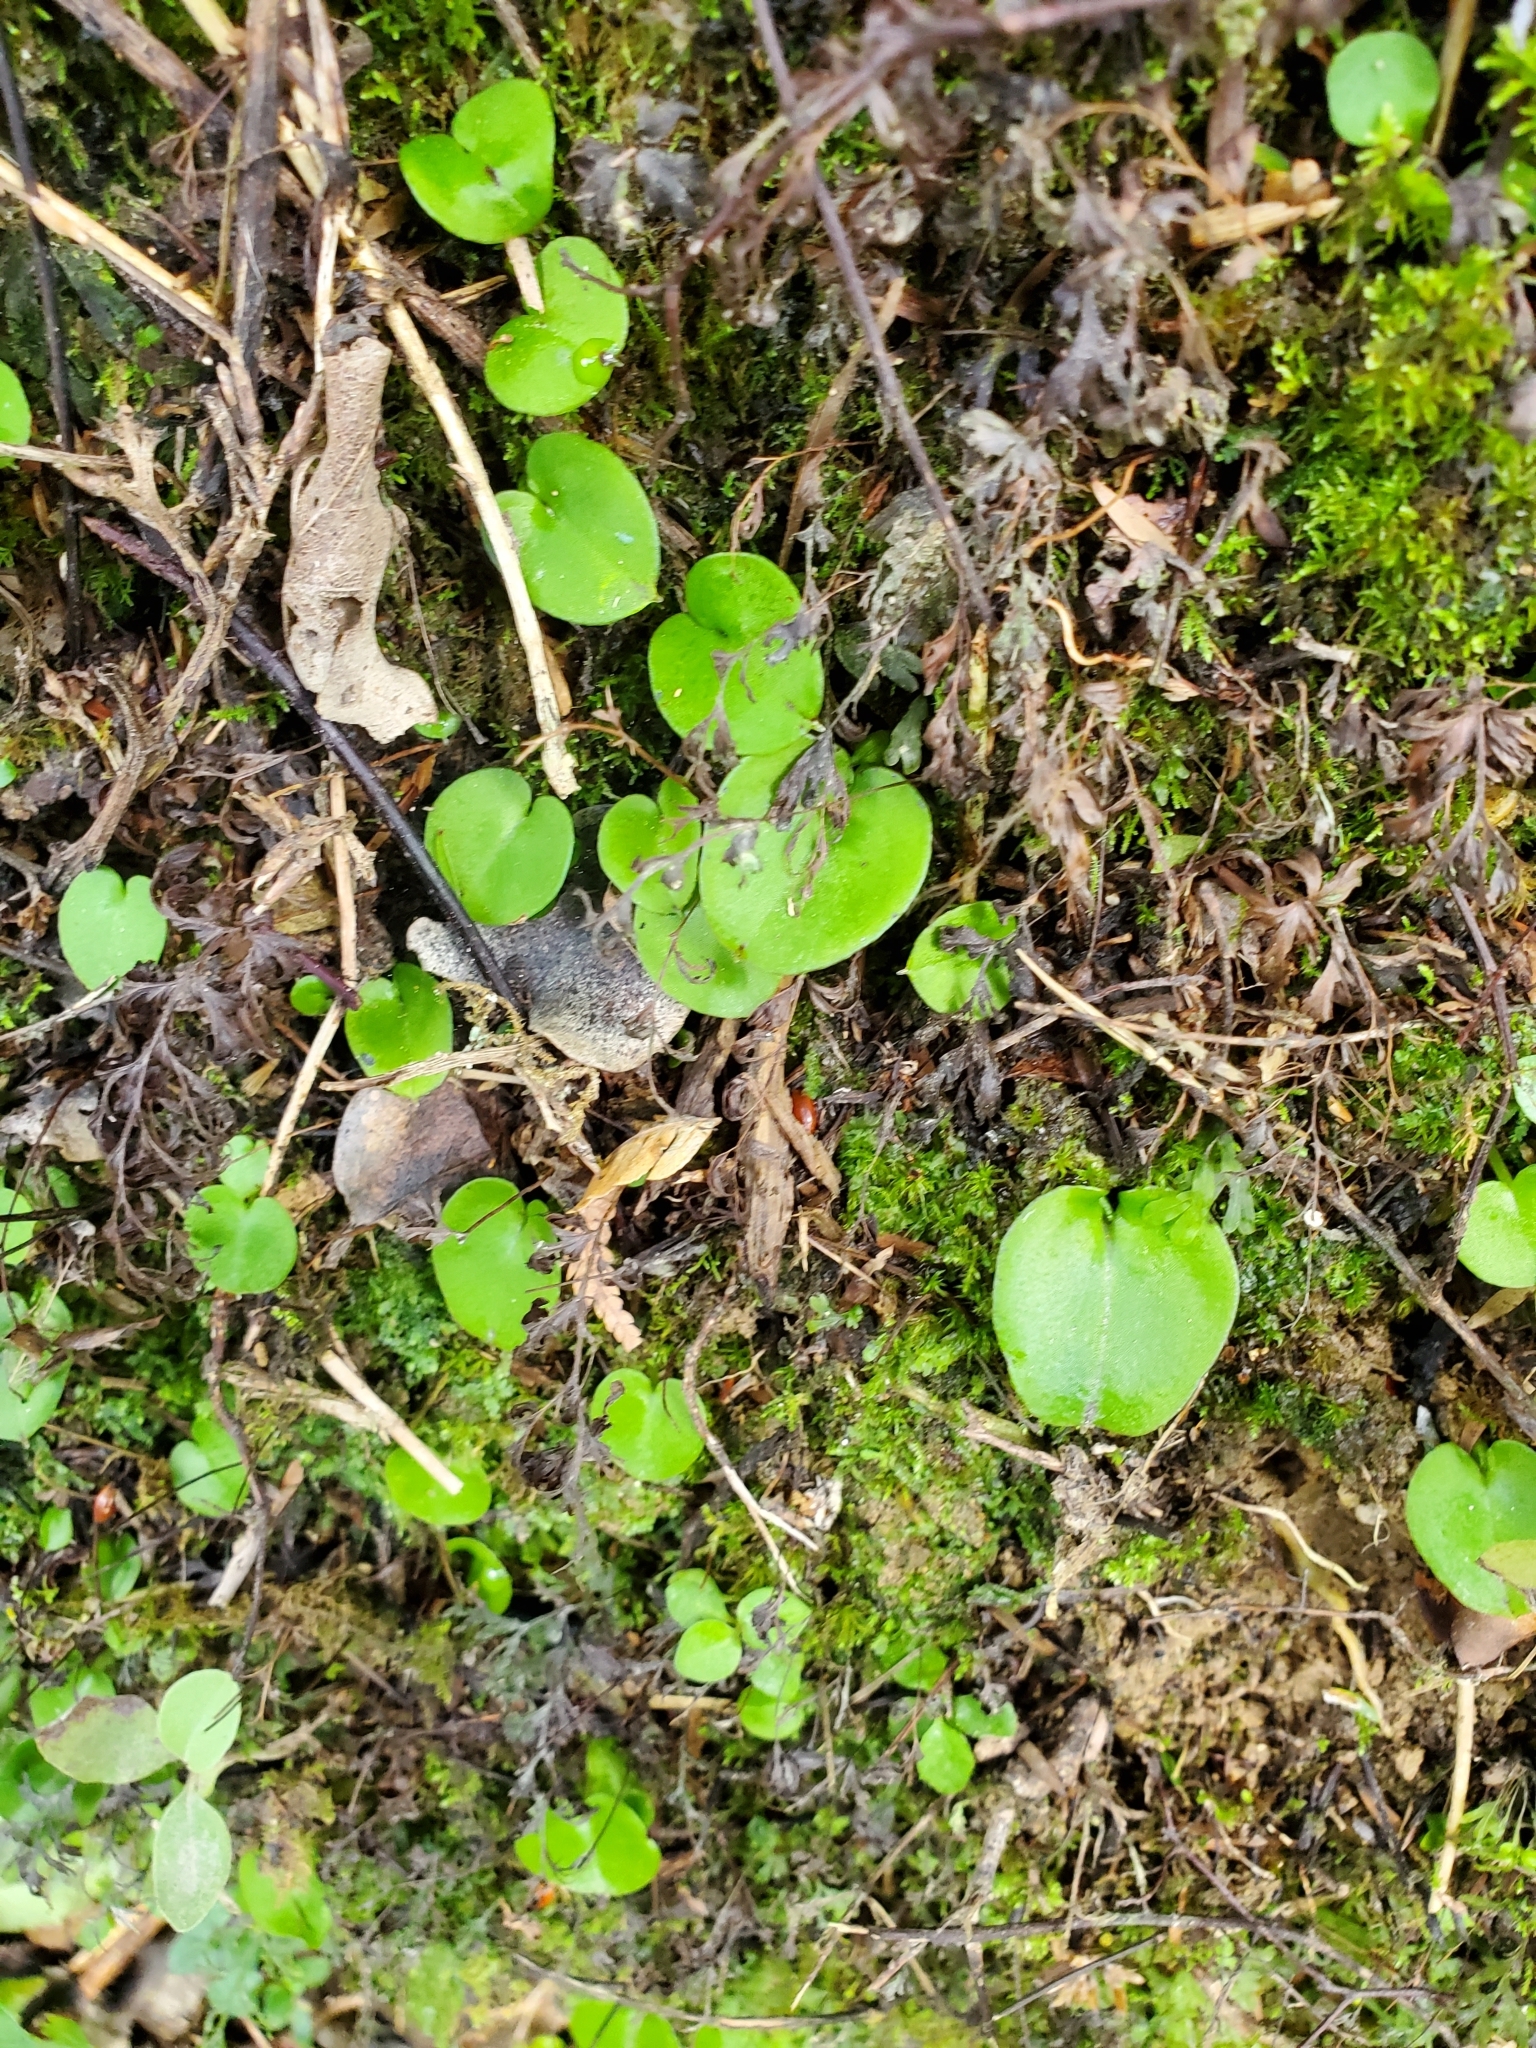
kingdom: Plantae
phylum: Tracheophyta
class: Liliopsida
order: Asparagales
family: Orchidaceae
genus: Corybas
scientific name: Corybas macranthus
